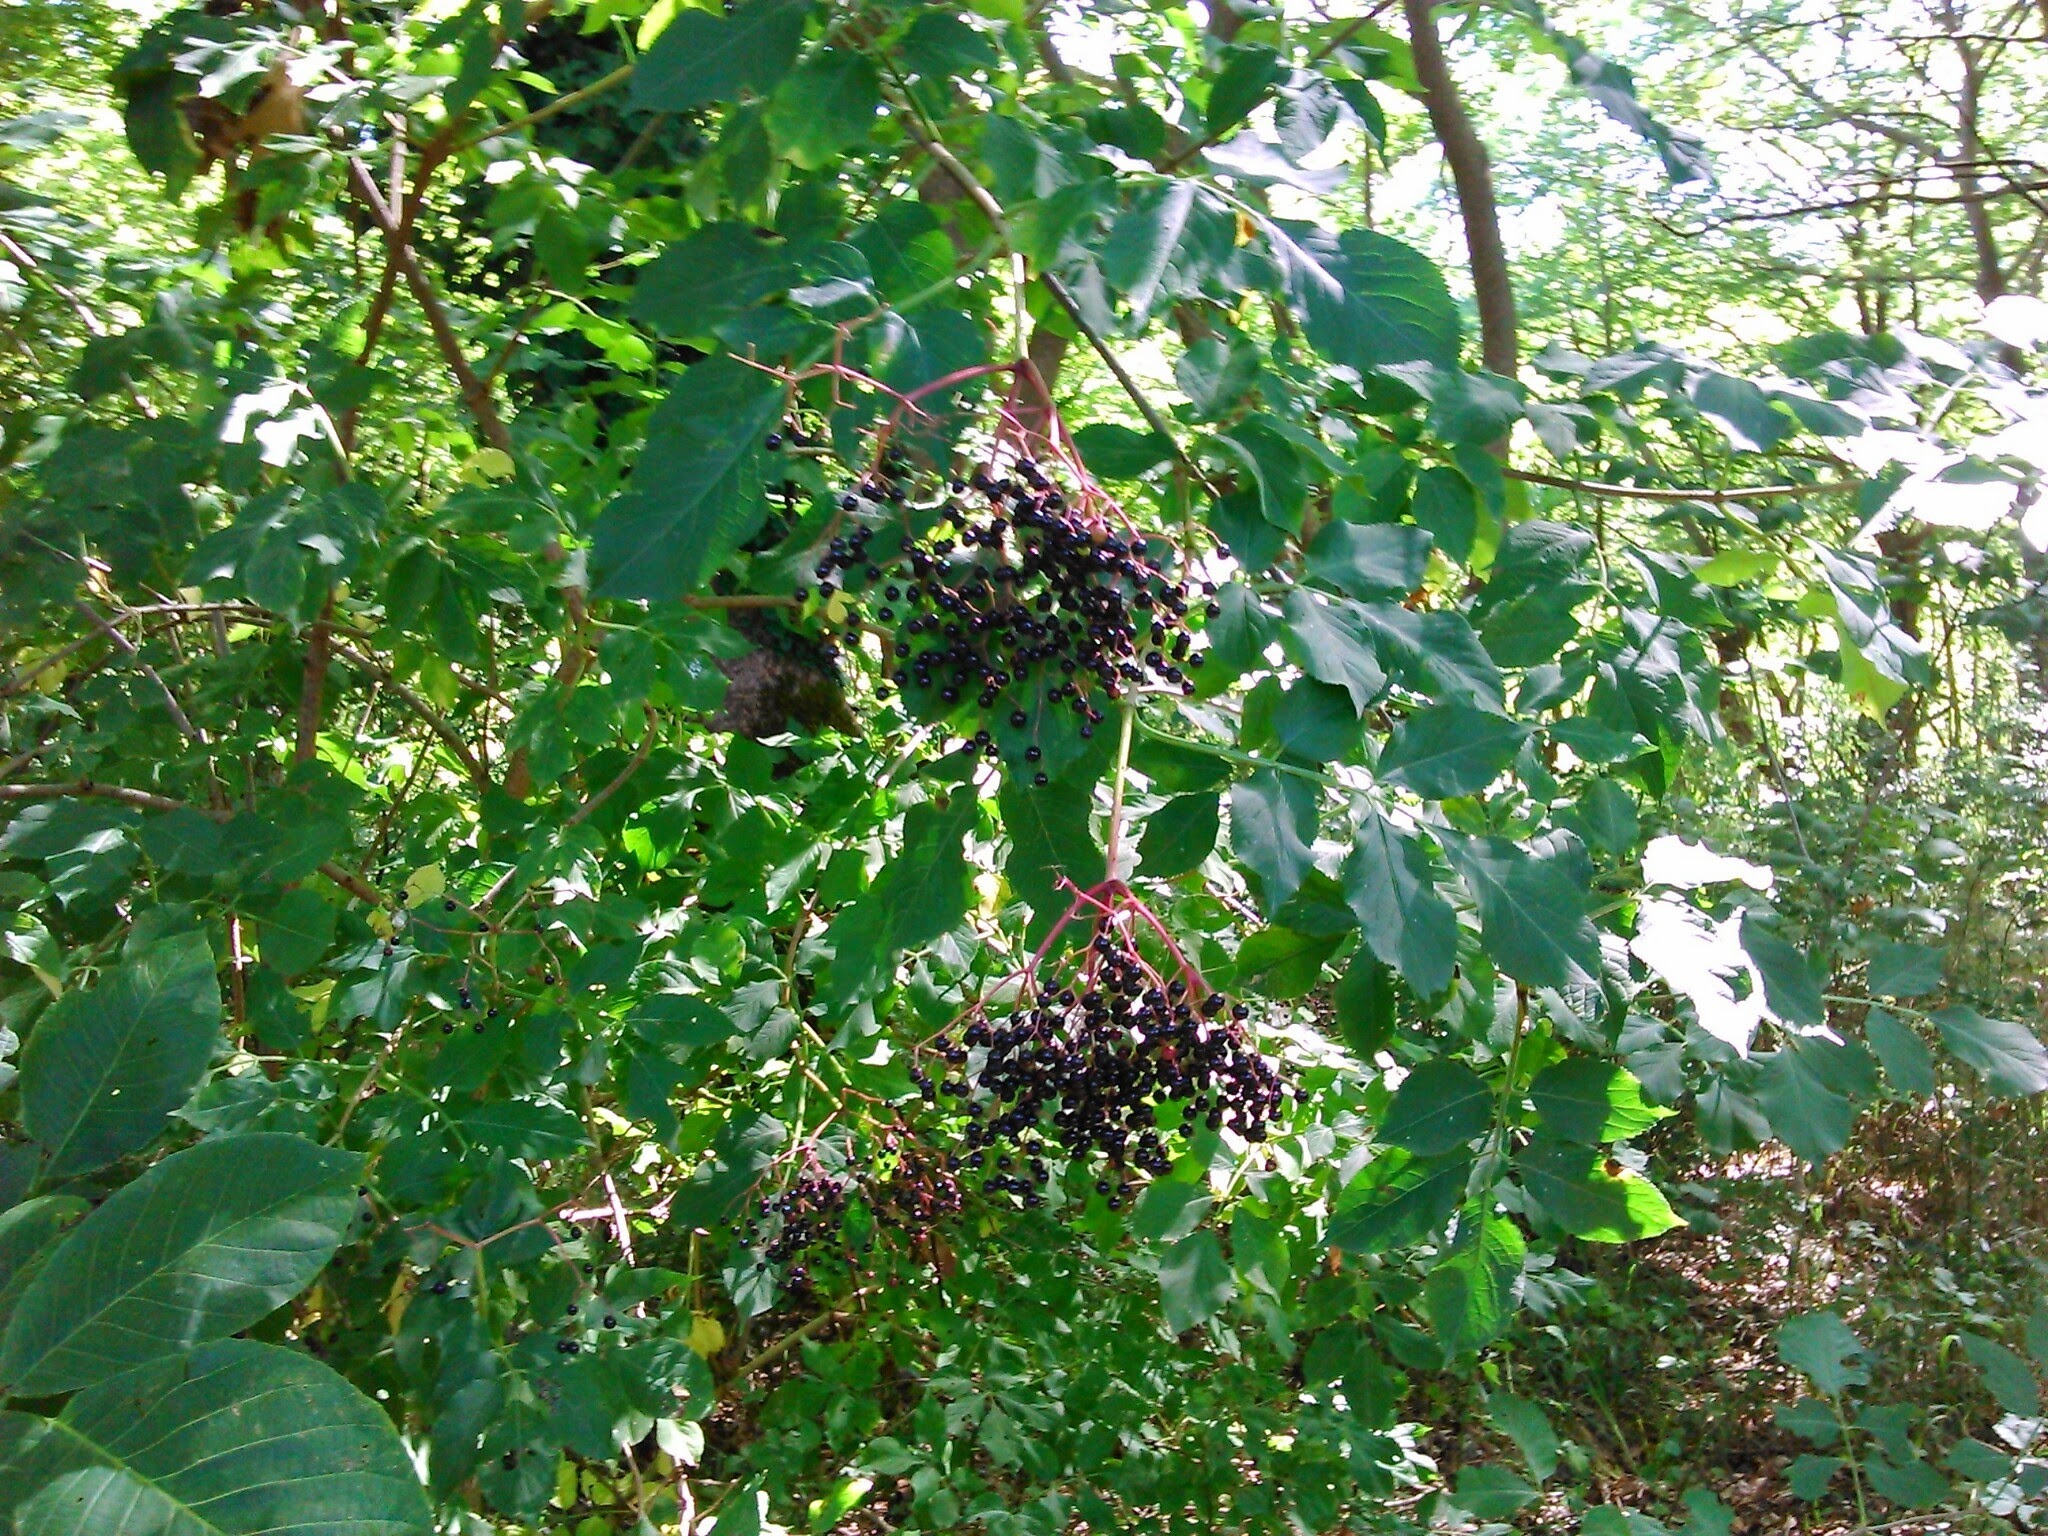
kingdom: Plantae
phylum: Tracheophyta
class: Magnoliopsida
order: Dipsacales
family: Viburnaceae
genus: Sambucus
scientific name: Sambucus nigra
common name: Elder
